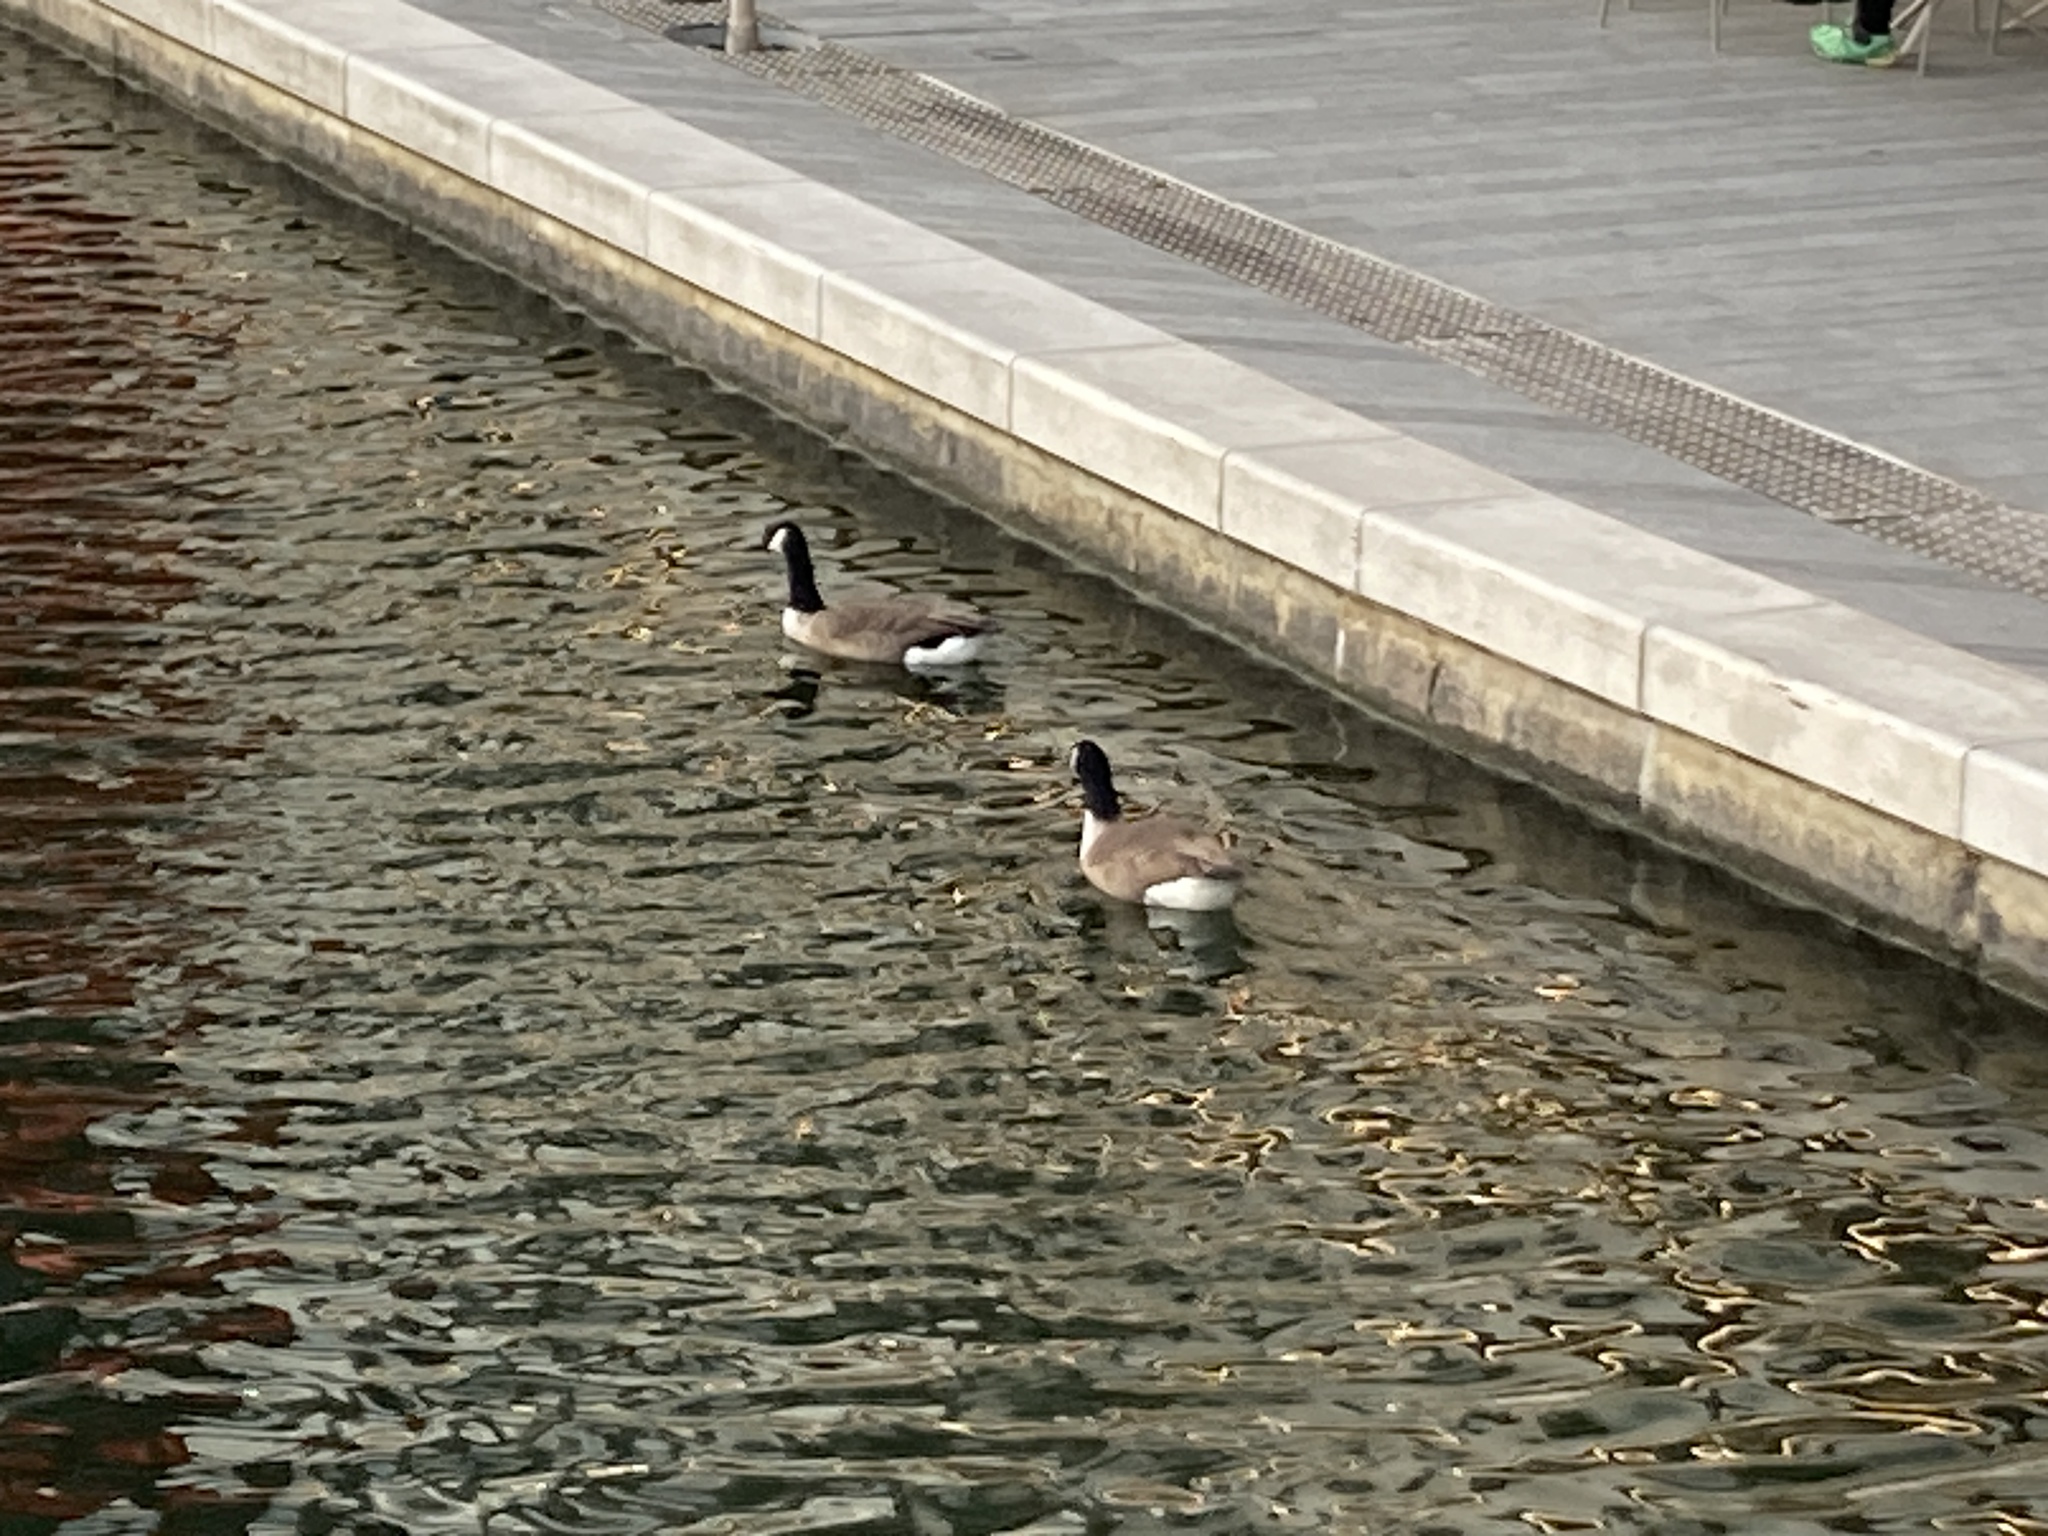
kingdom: Animalia
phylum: Chordata
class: Aves
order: Anseriformes
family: Anatidae
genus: Branta
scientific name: Branta canadensis
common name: Canada goose
